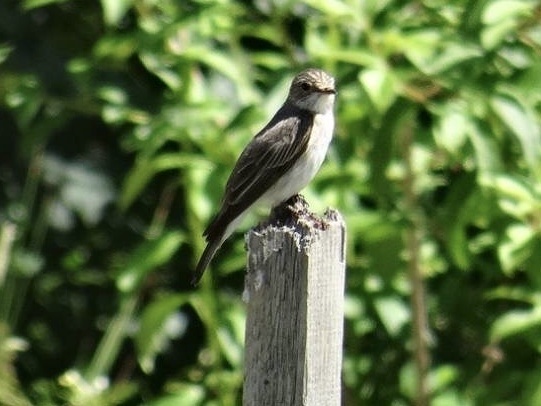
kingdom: Animalia
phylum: Chordata
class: Aves
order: Passeriformes
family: Muscicapidae
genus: Muscicapa
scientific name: Muscicapa striata
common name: Spotted flycatcher
